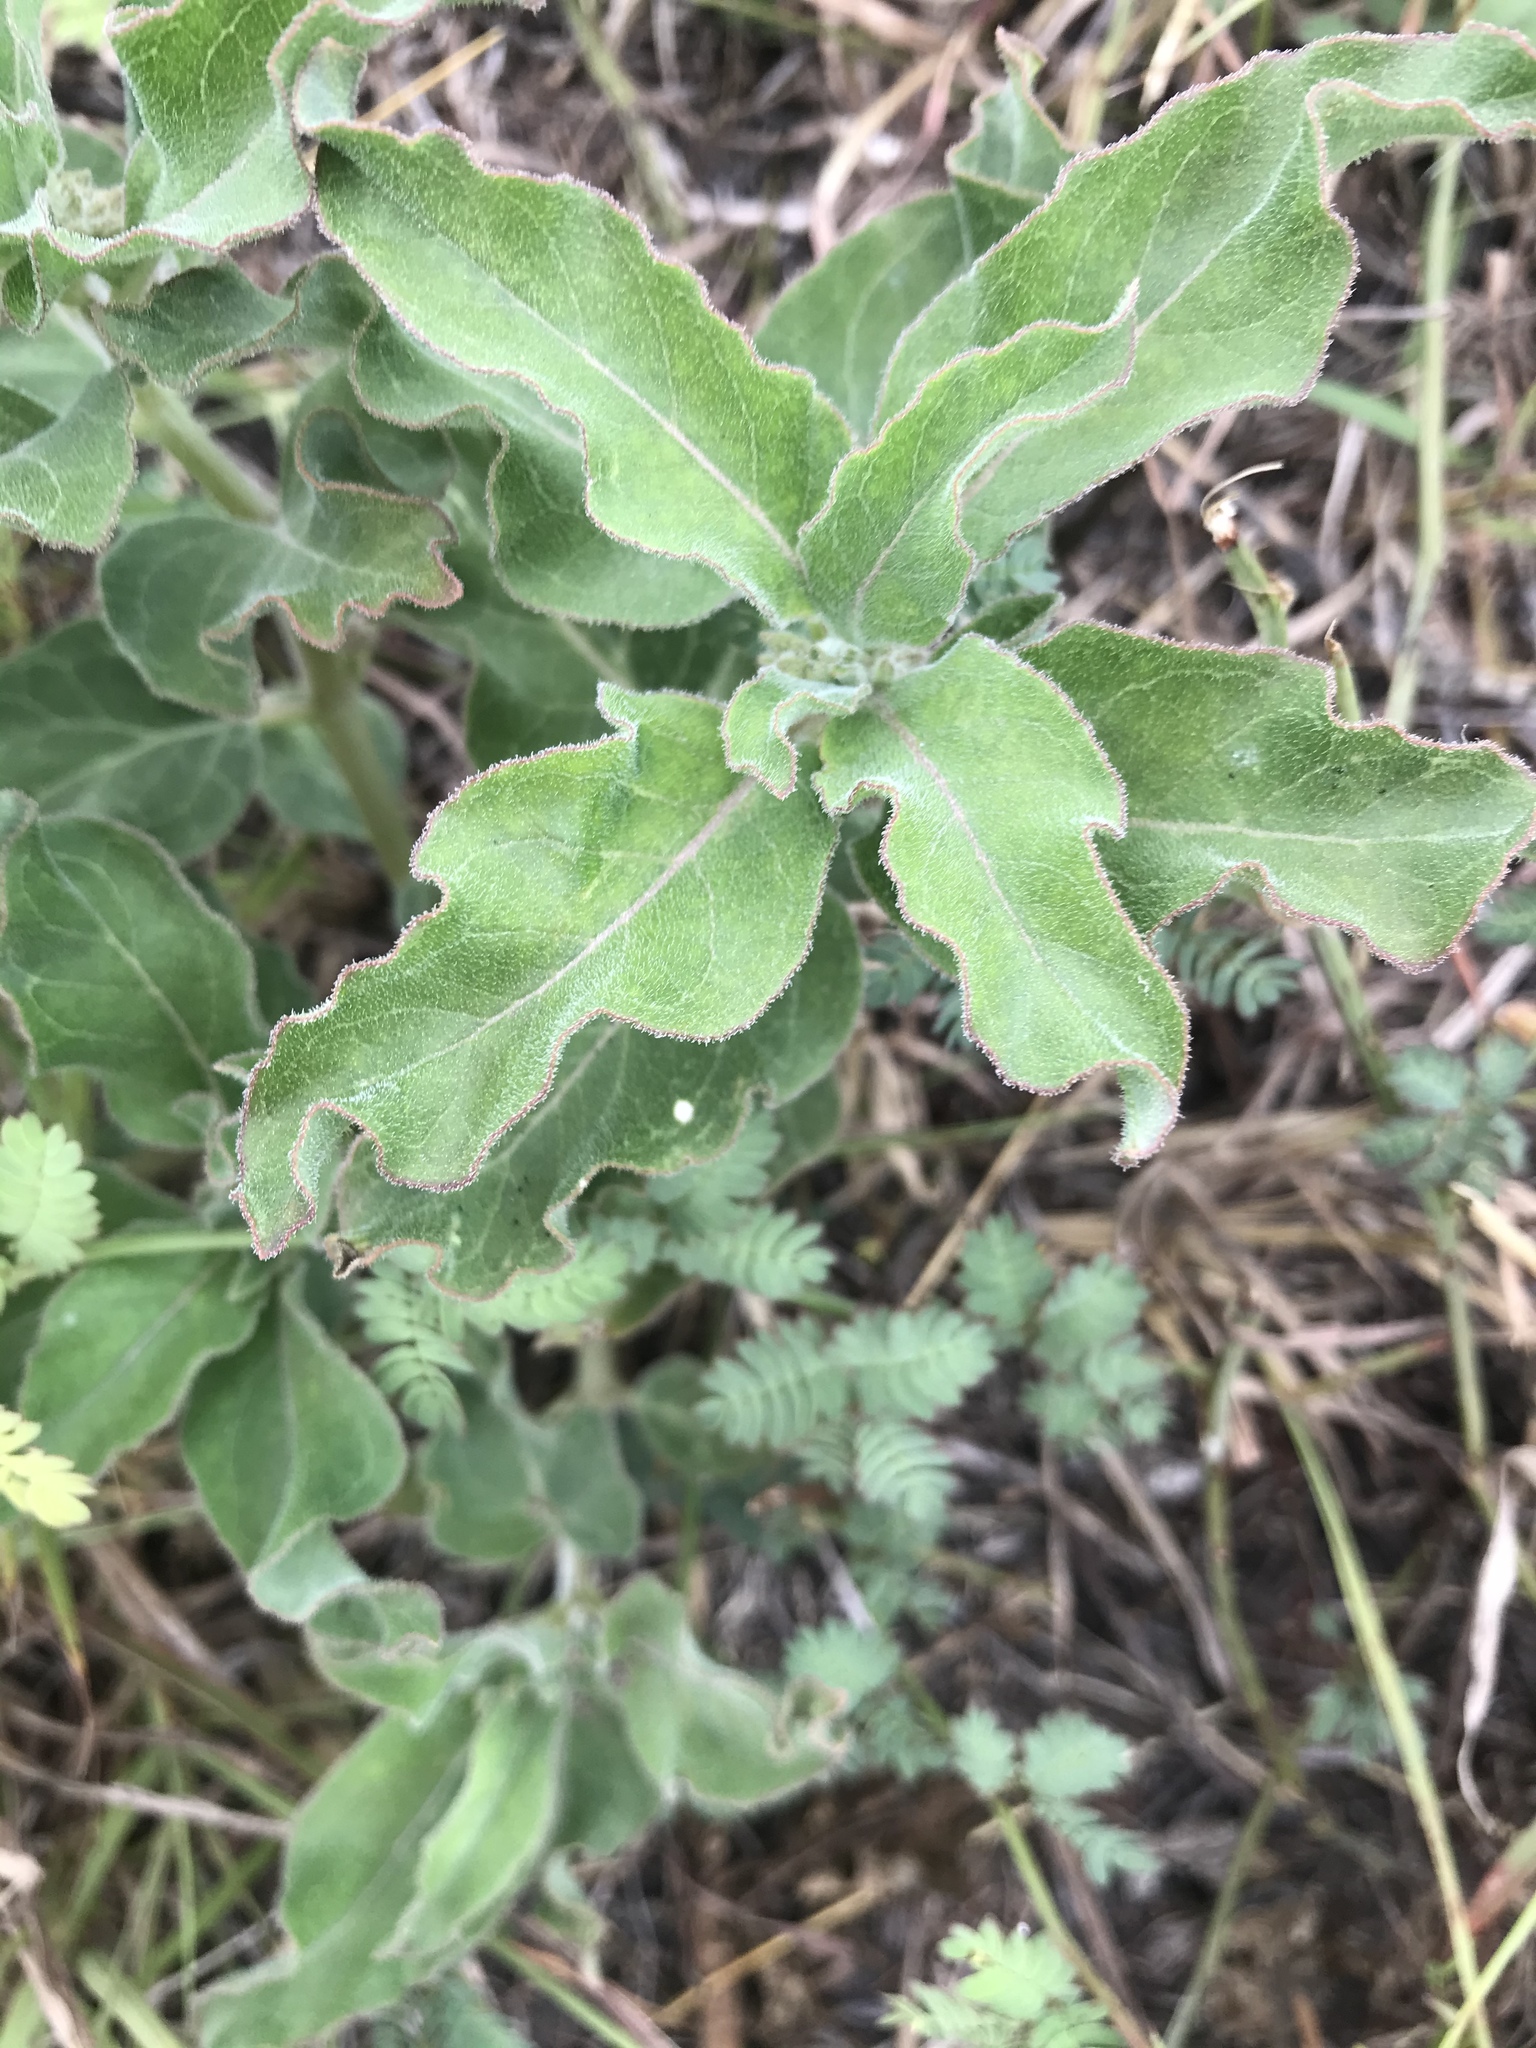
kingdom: Plantae
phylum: Tracheophyta
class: Magnoliopsida
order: Gentianales
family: Apocynaceae
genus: Asclepias
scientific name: Asclepias oenotheroides
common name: Zizotes milkweed
